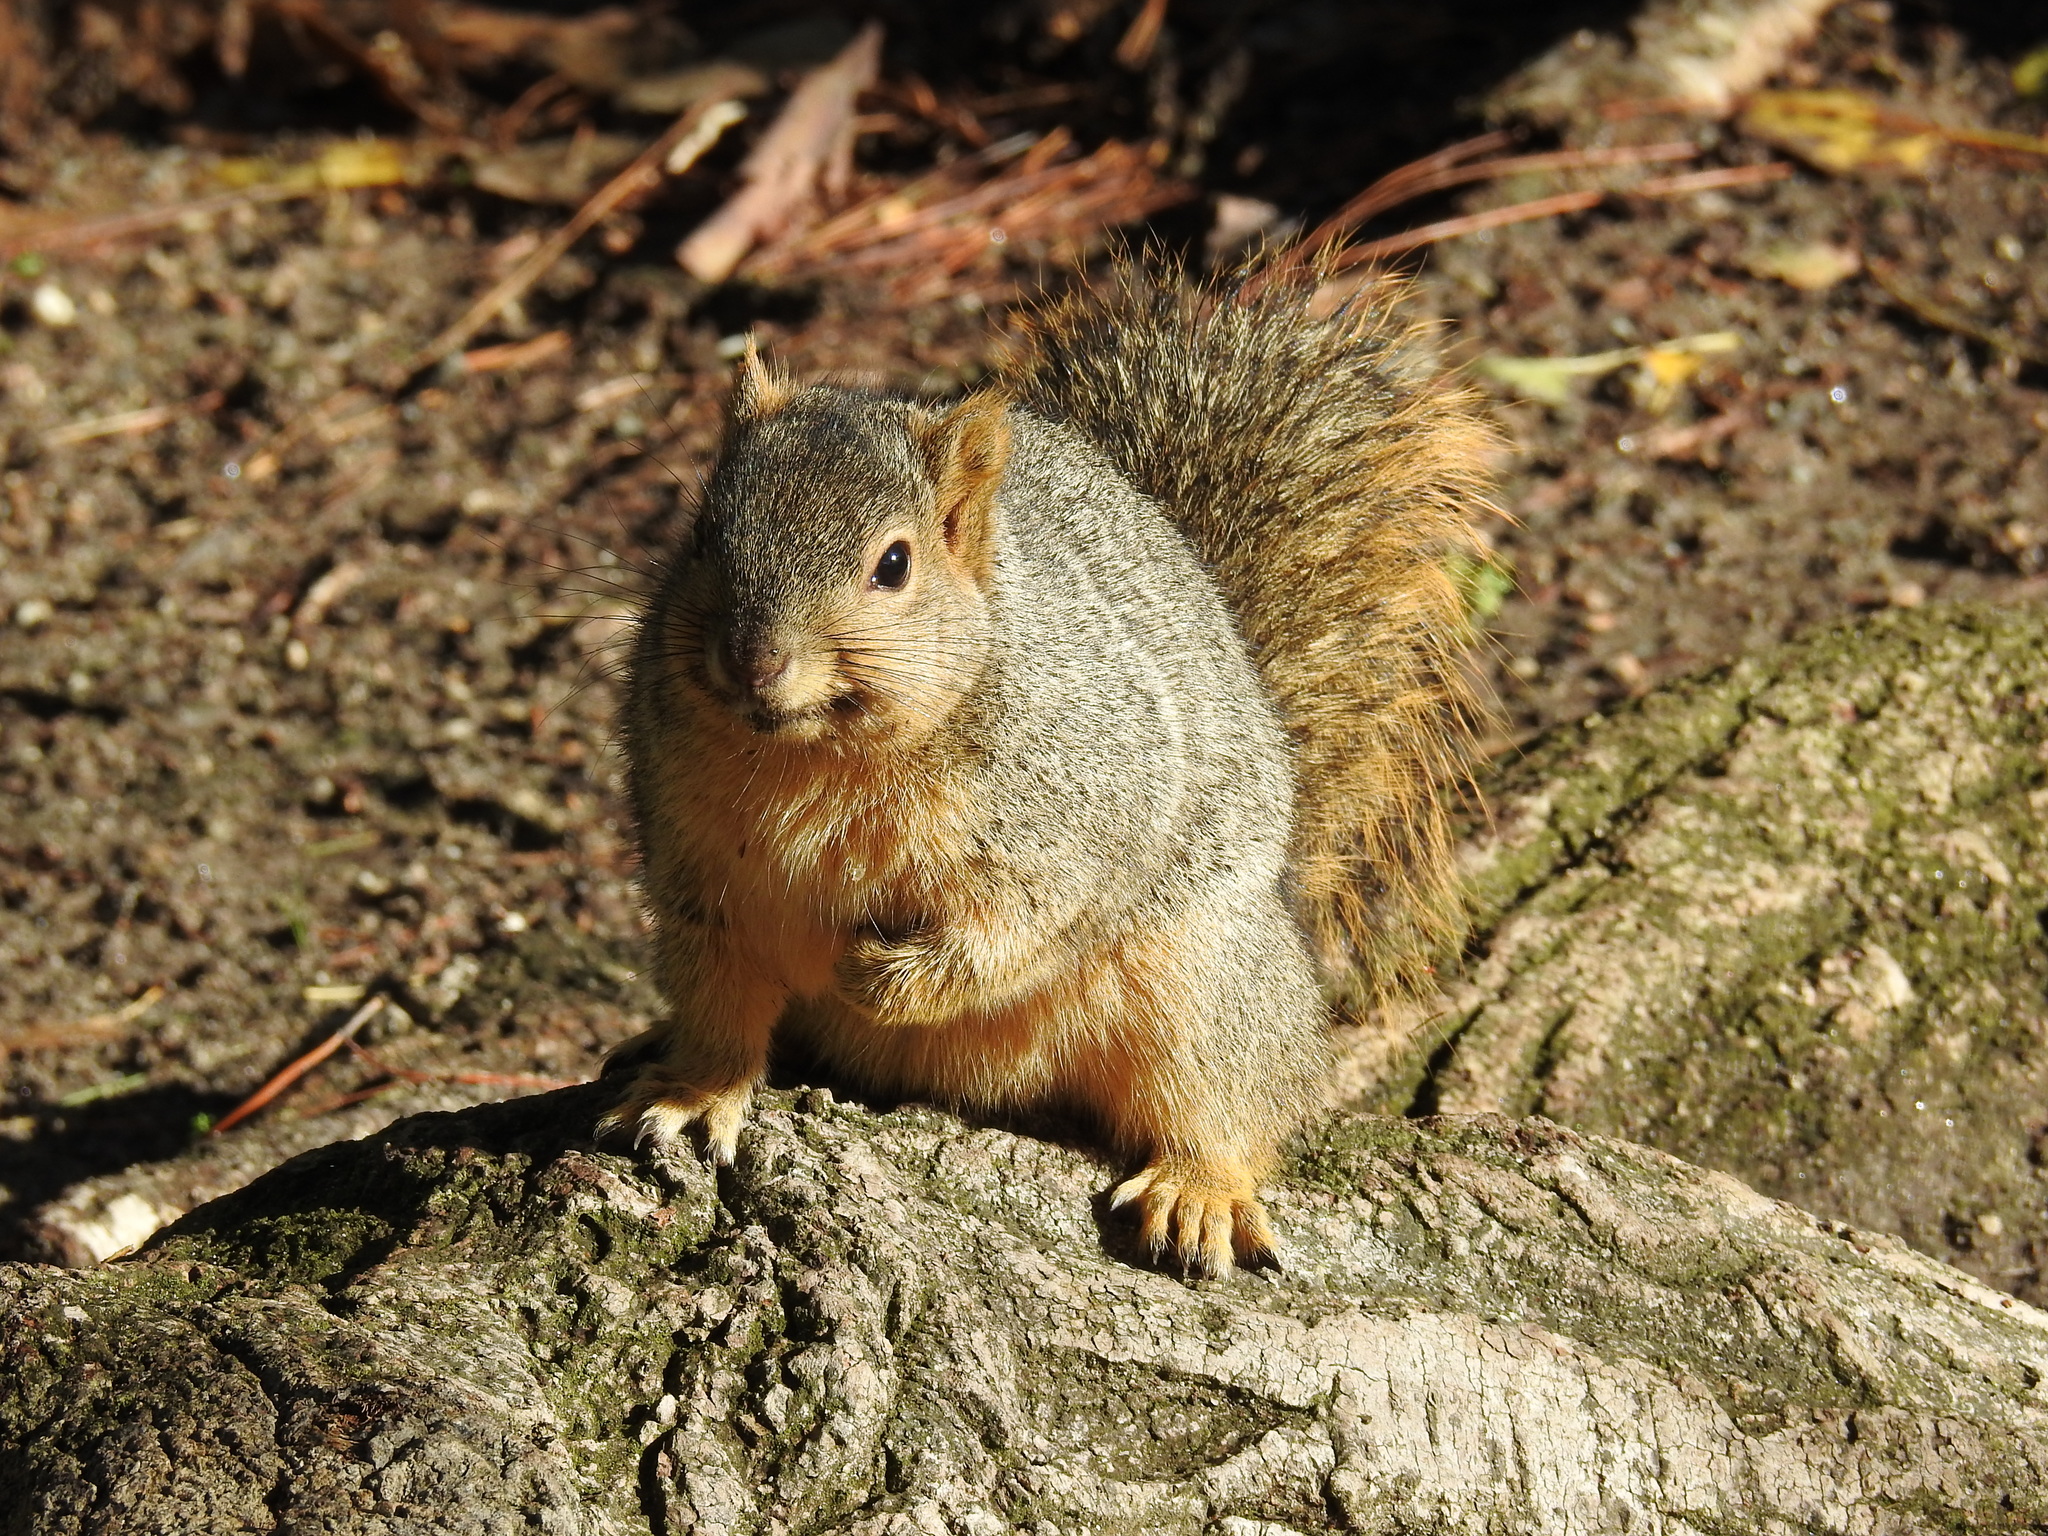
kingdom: Animalia
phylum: Chordata
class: Mammalia
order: Rodentia
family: Sciuridae
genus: Sciurus
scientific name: Sciurus niger
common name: Fox squirrel
